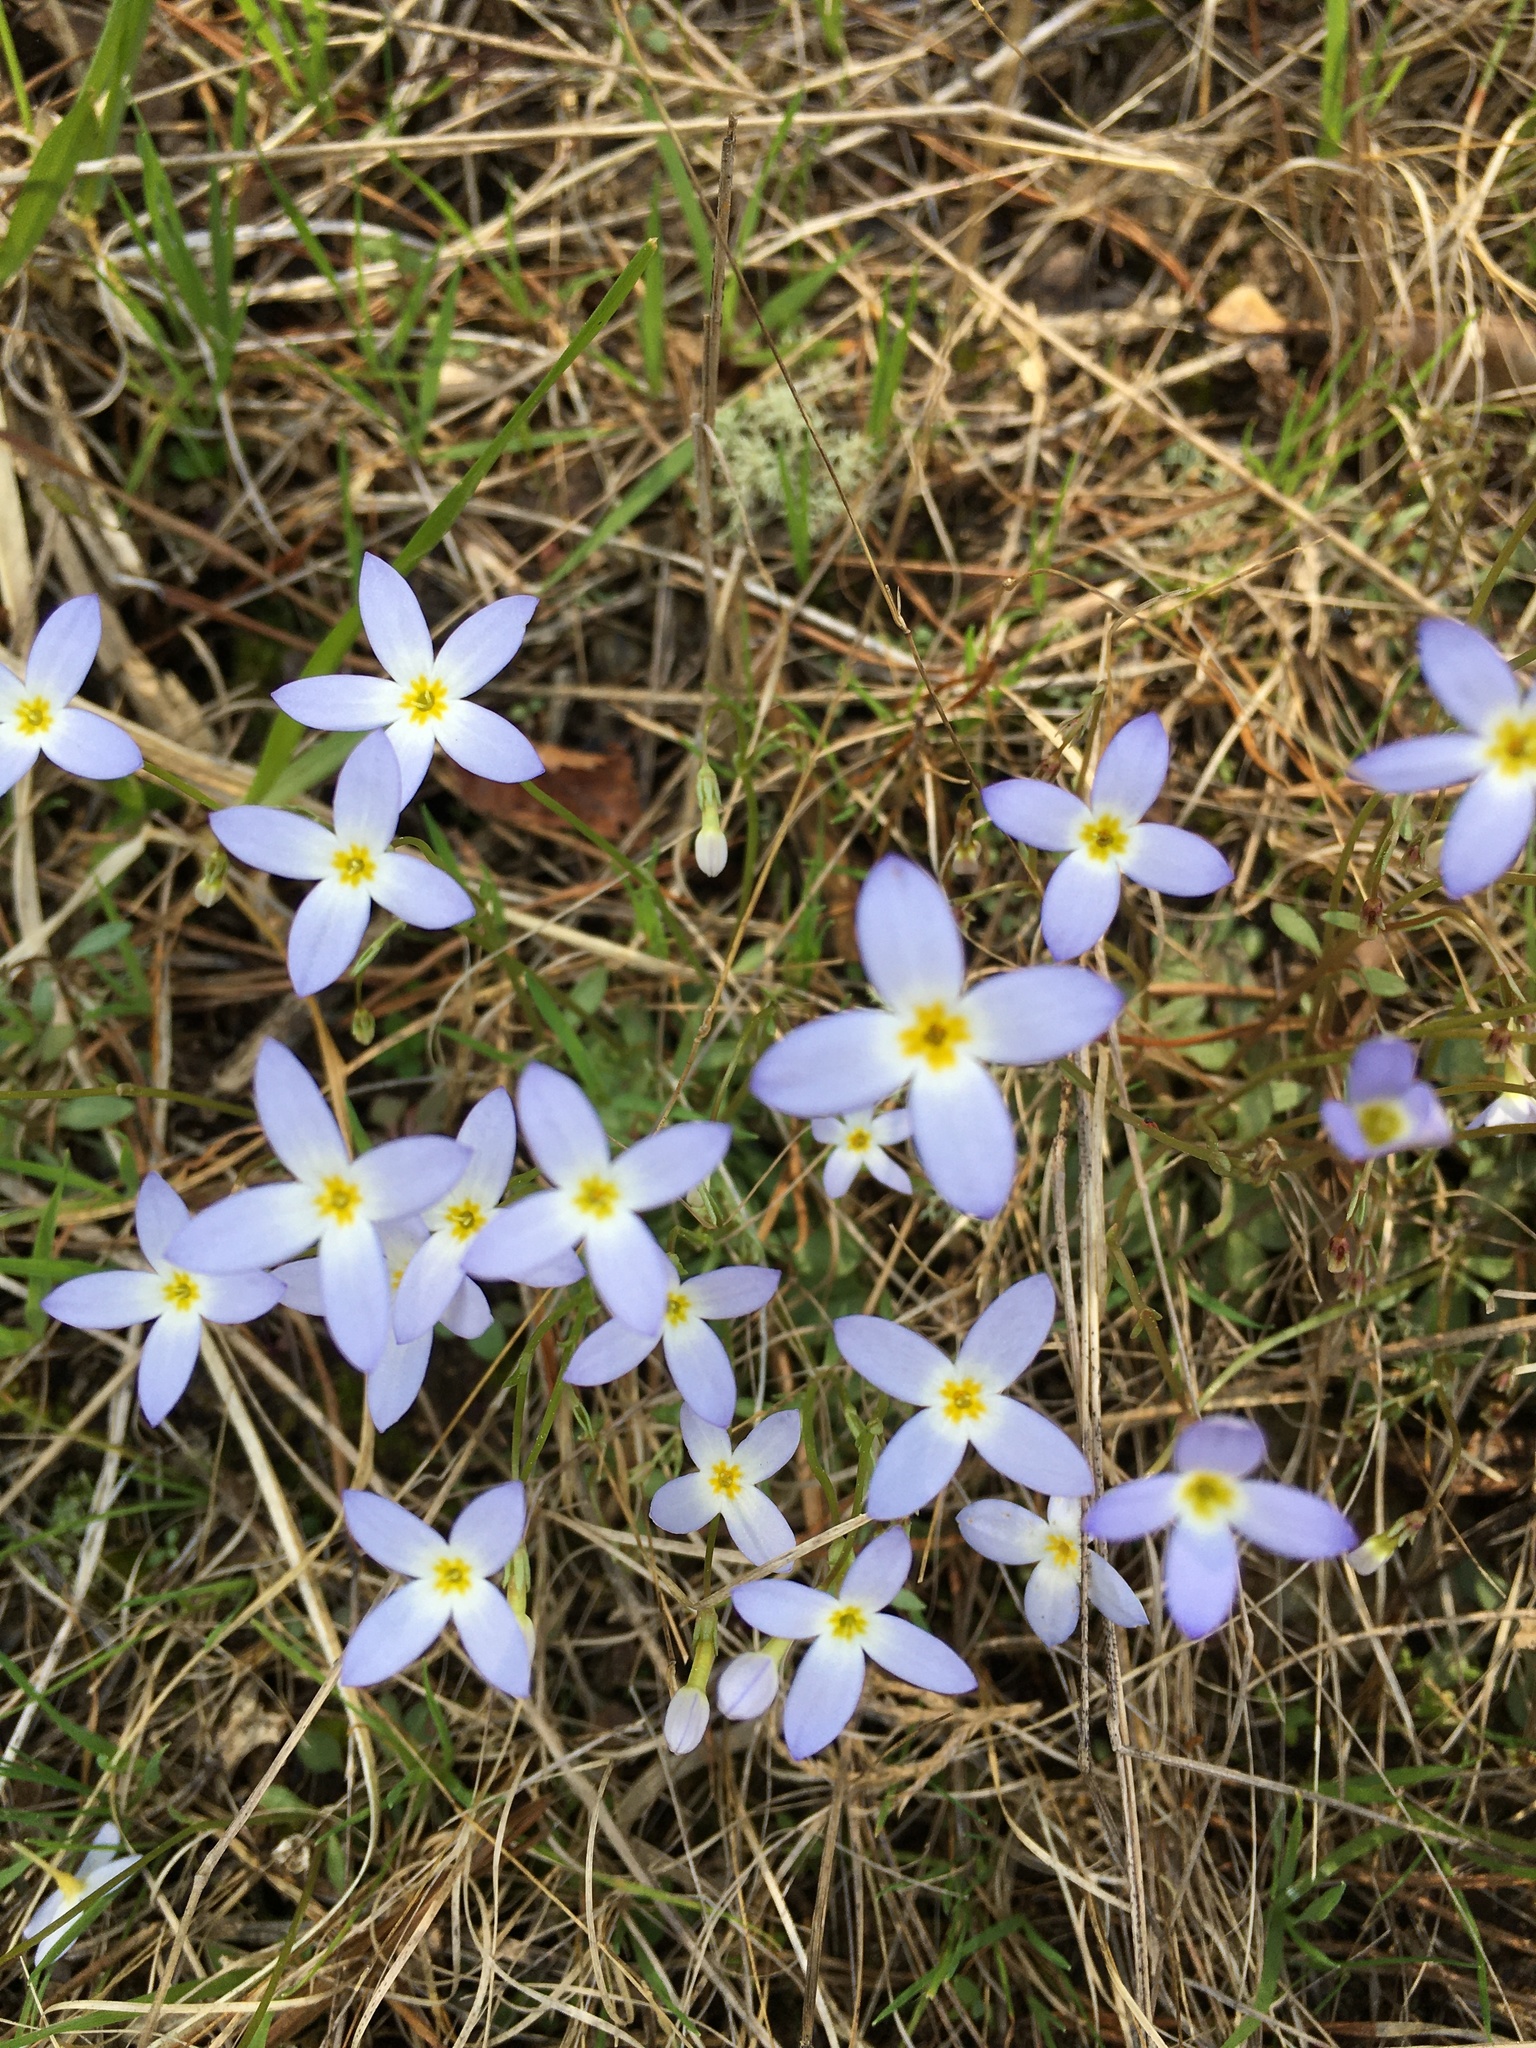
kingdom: Plantae
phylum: Tracheophyta
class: Magnoliopsida
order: Gentianales
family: Rubiaceae
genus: Houstonia
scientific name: Houstonia caerulea
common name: Bluets
